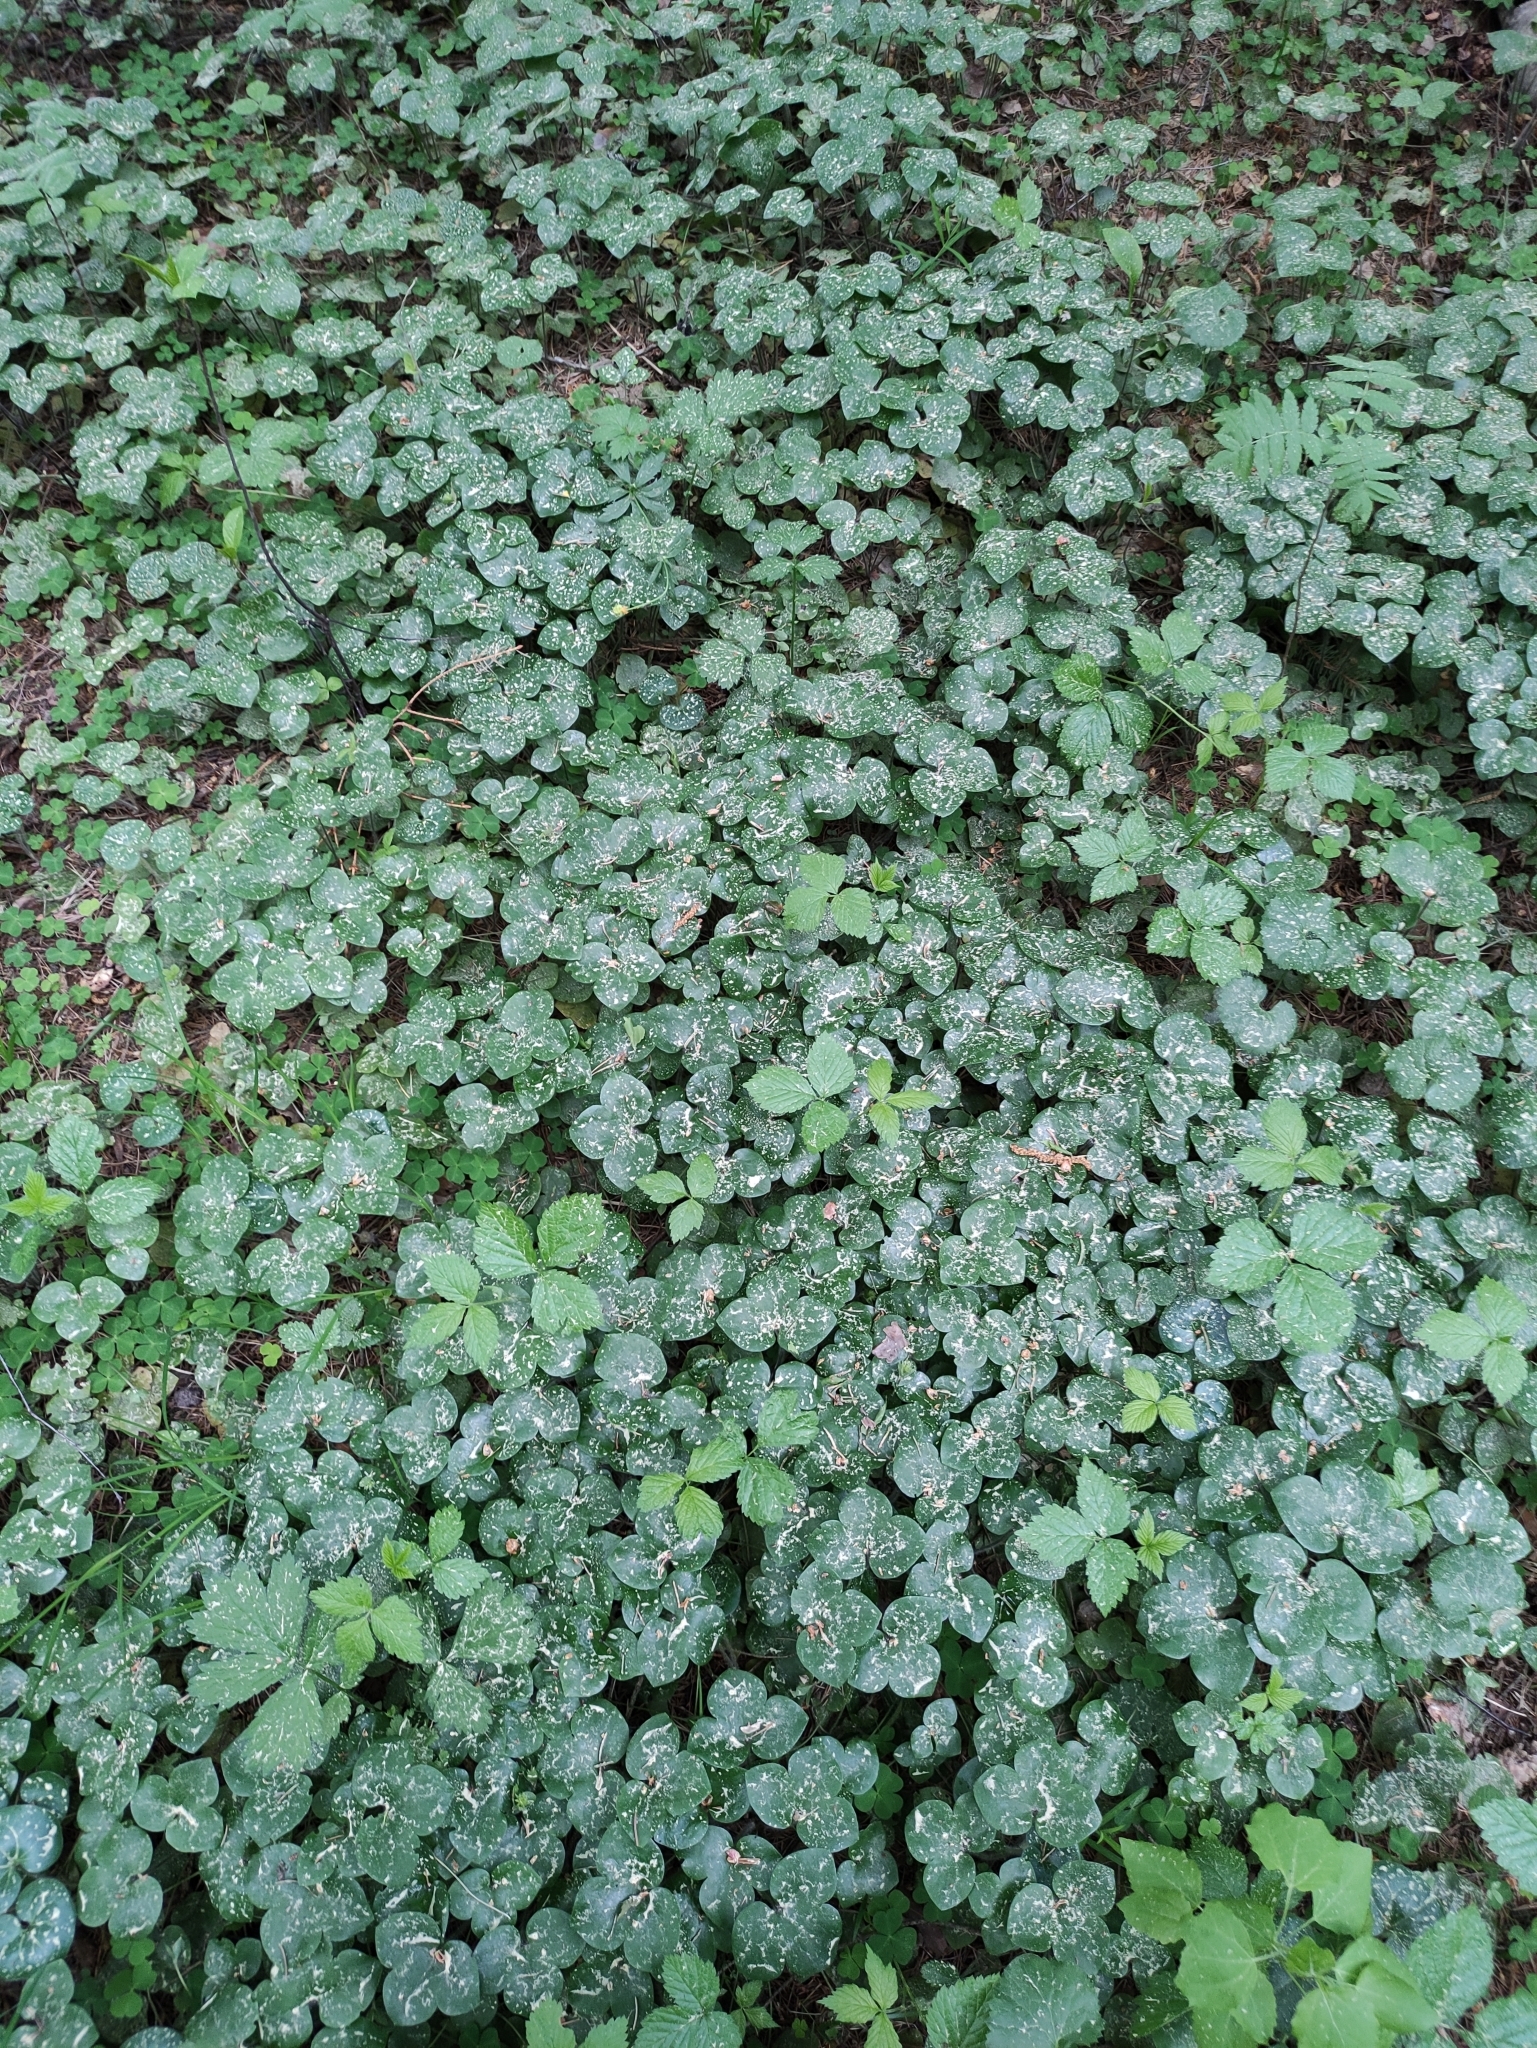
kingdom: Plantae
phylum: Tracheophyta
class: Magnoliopsida
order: Ranunculales
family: Ranunculaceae
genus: Hepatica
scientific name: Hepatica nobilis
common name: Liverleaf
